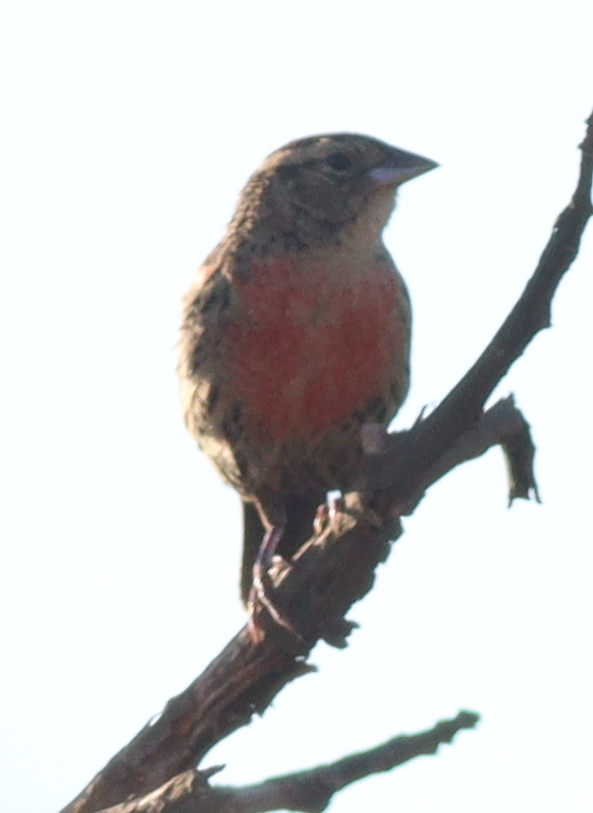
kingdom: Animalia
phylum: Chordata
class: Aves
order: Passeriformes
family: Icteridae
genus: Sturnella
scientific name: Sturnella superciliaris
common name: White-browed blackbird
